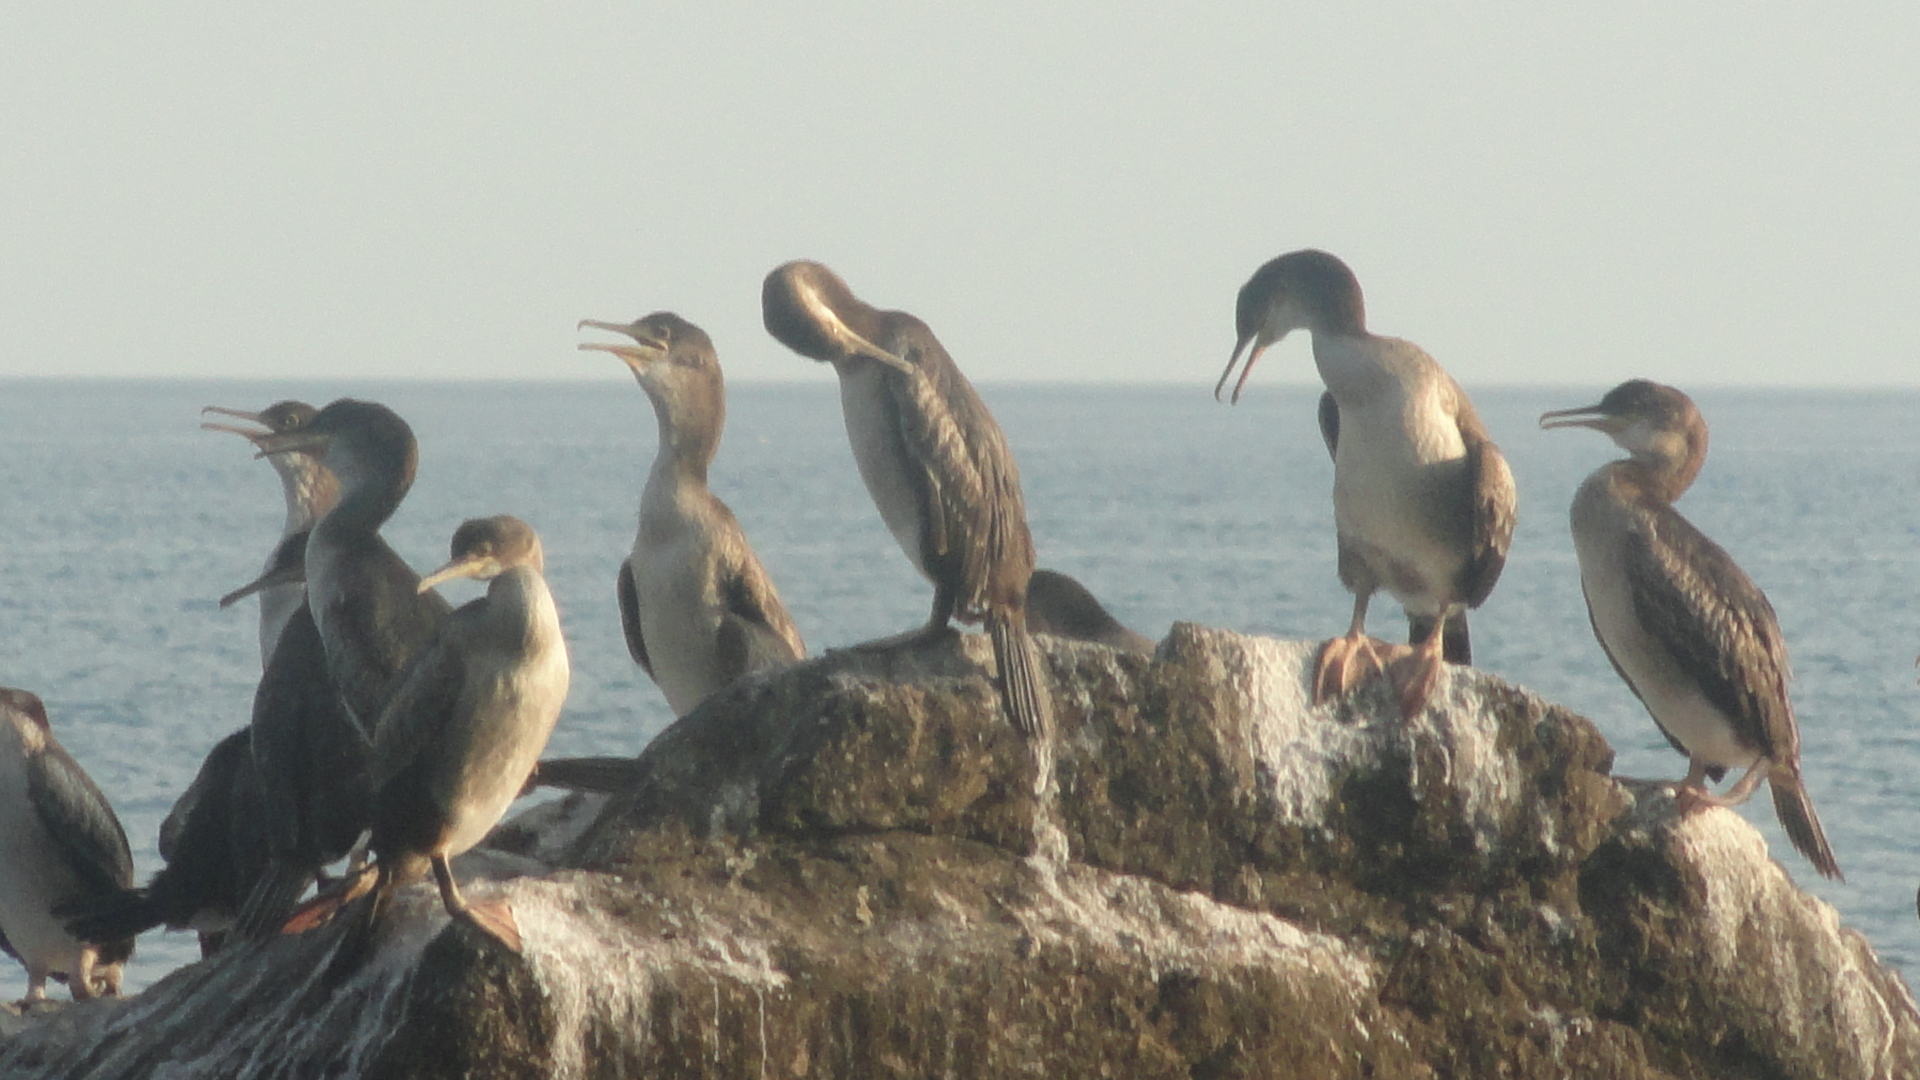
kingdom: Animalia
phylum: Chordata
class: Aves
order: Suliformes
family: Phalacrocoracidae
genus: Phalacrocorax
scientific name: Phalacrocorax aristotelis
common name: European shag
